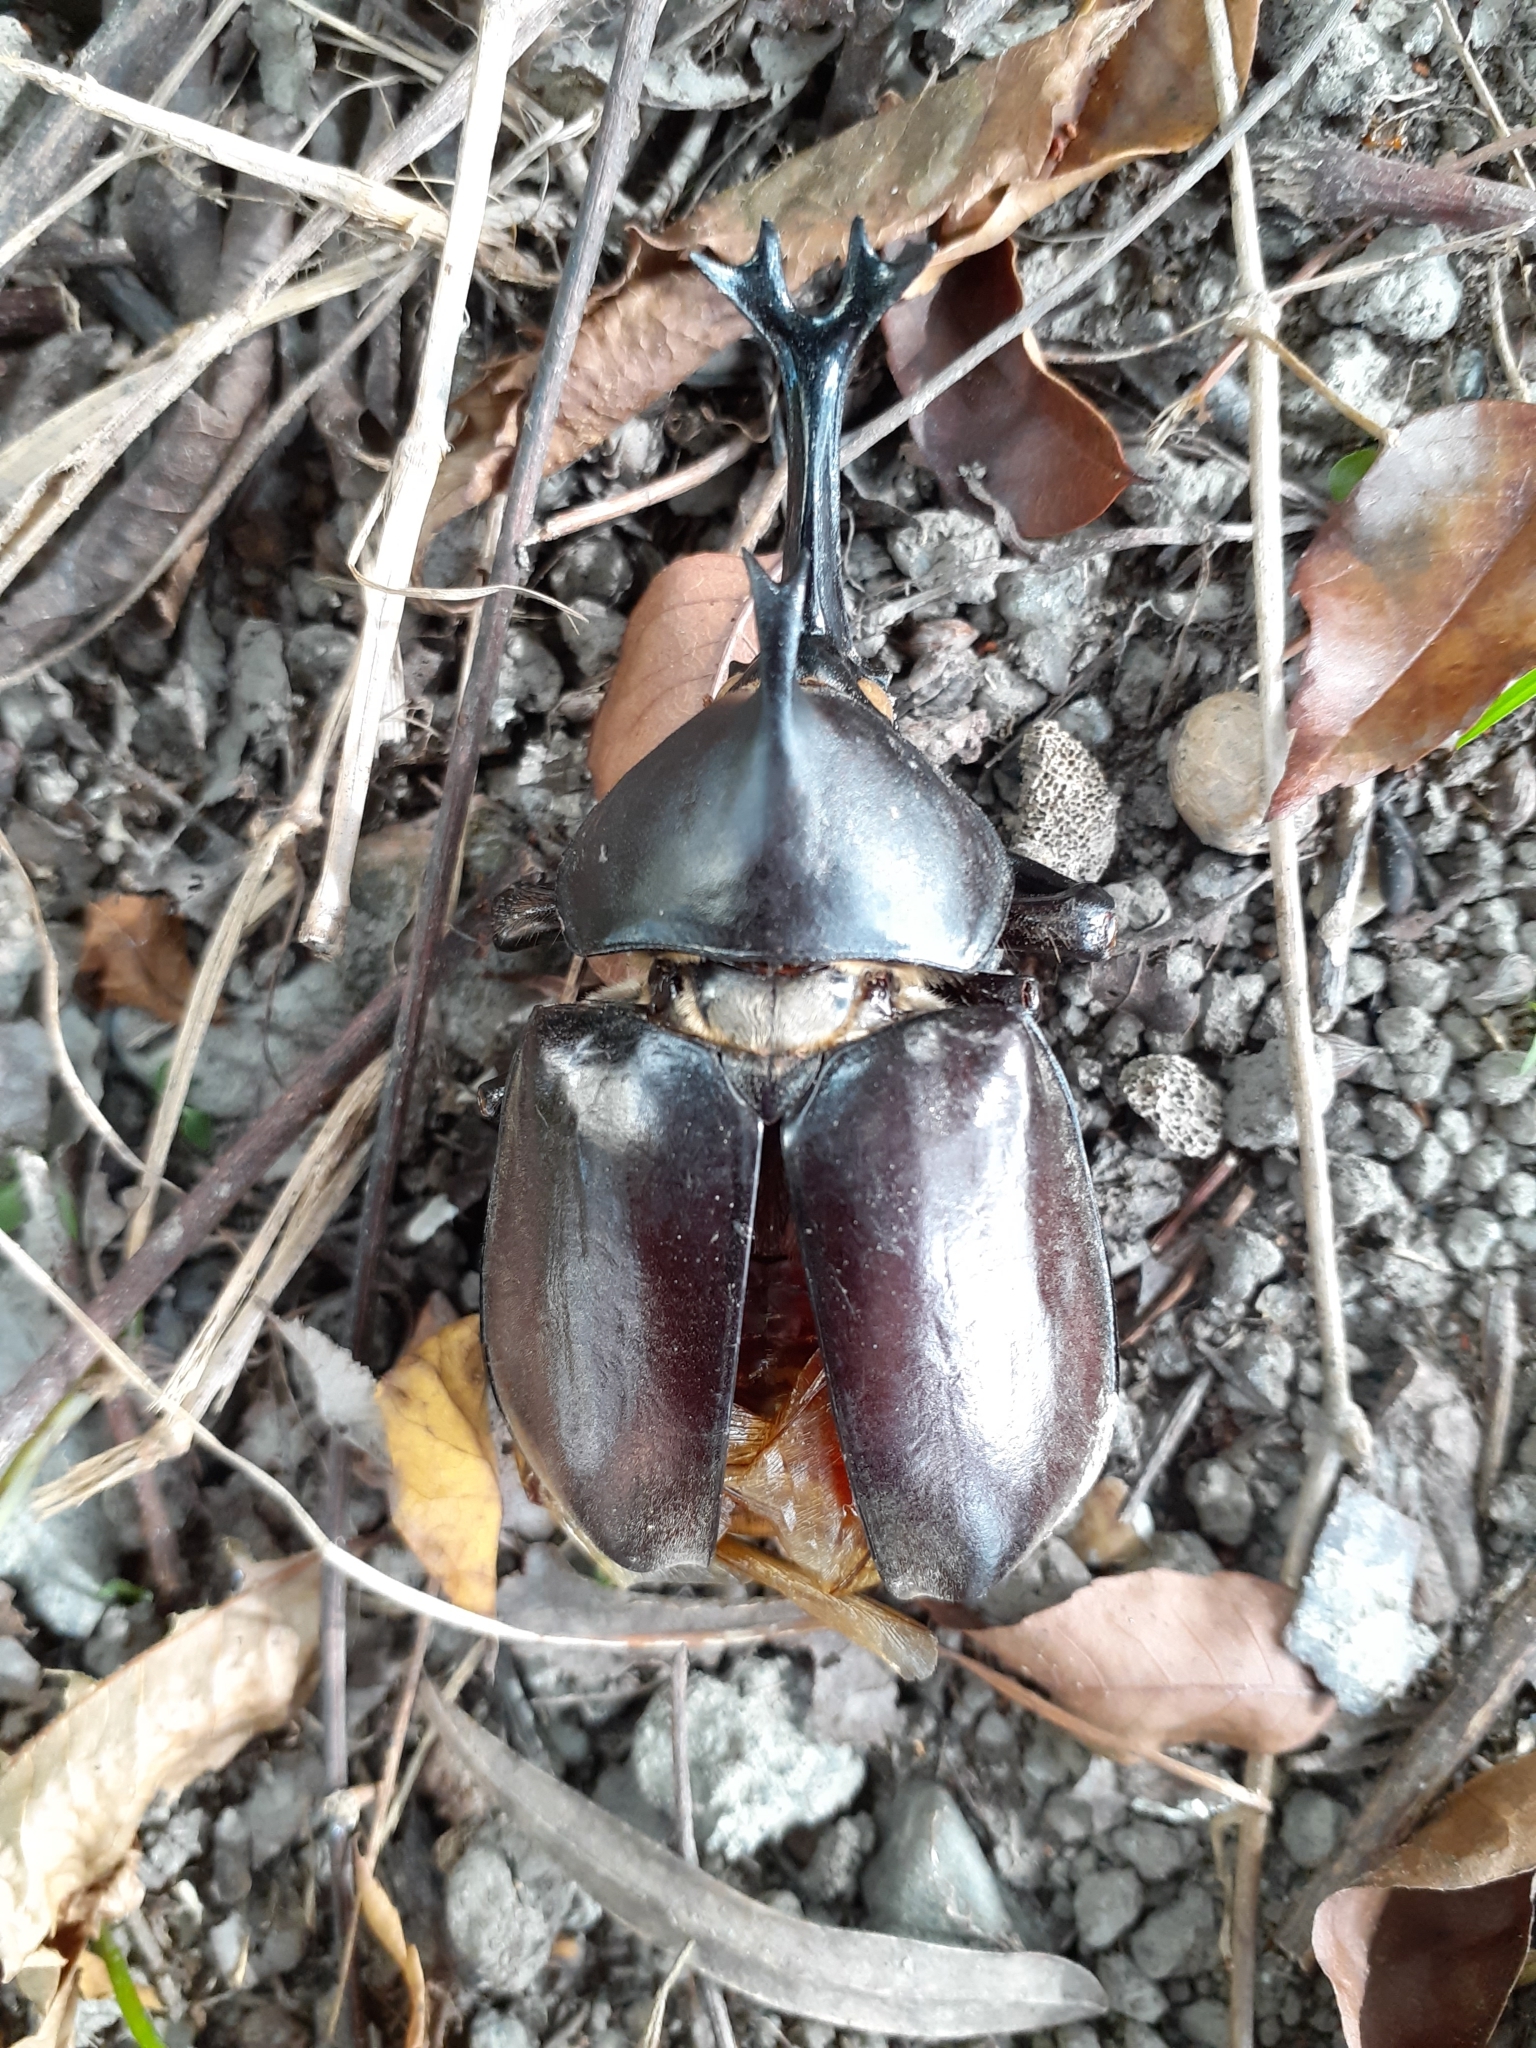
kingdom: Animalia
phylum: Arthropoda
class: Insecta
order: Coleoptera
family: Scarabaeidae
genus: Trypoxylus
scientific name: Trypoxylus dichotomus
